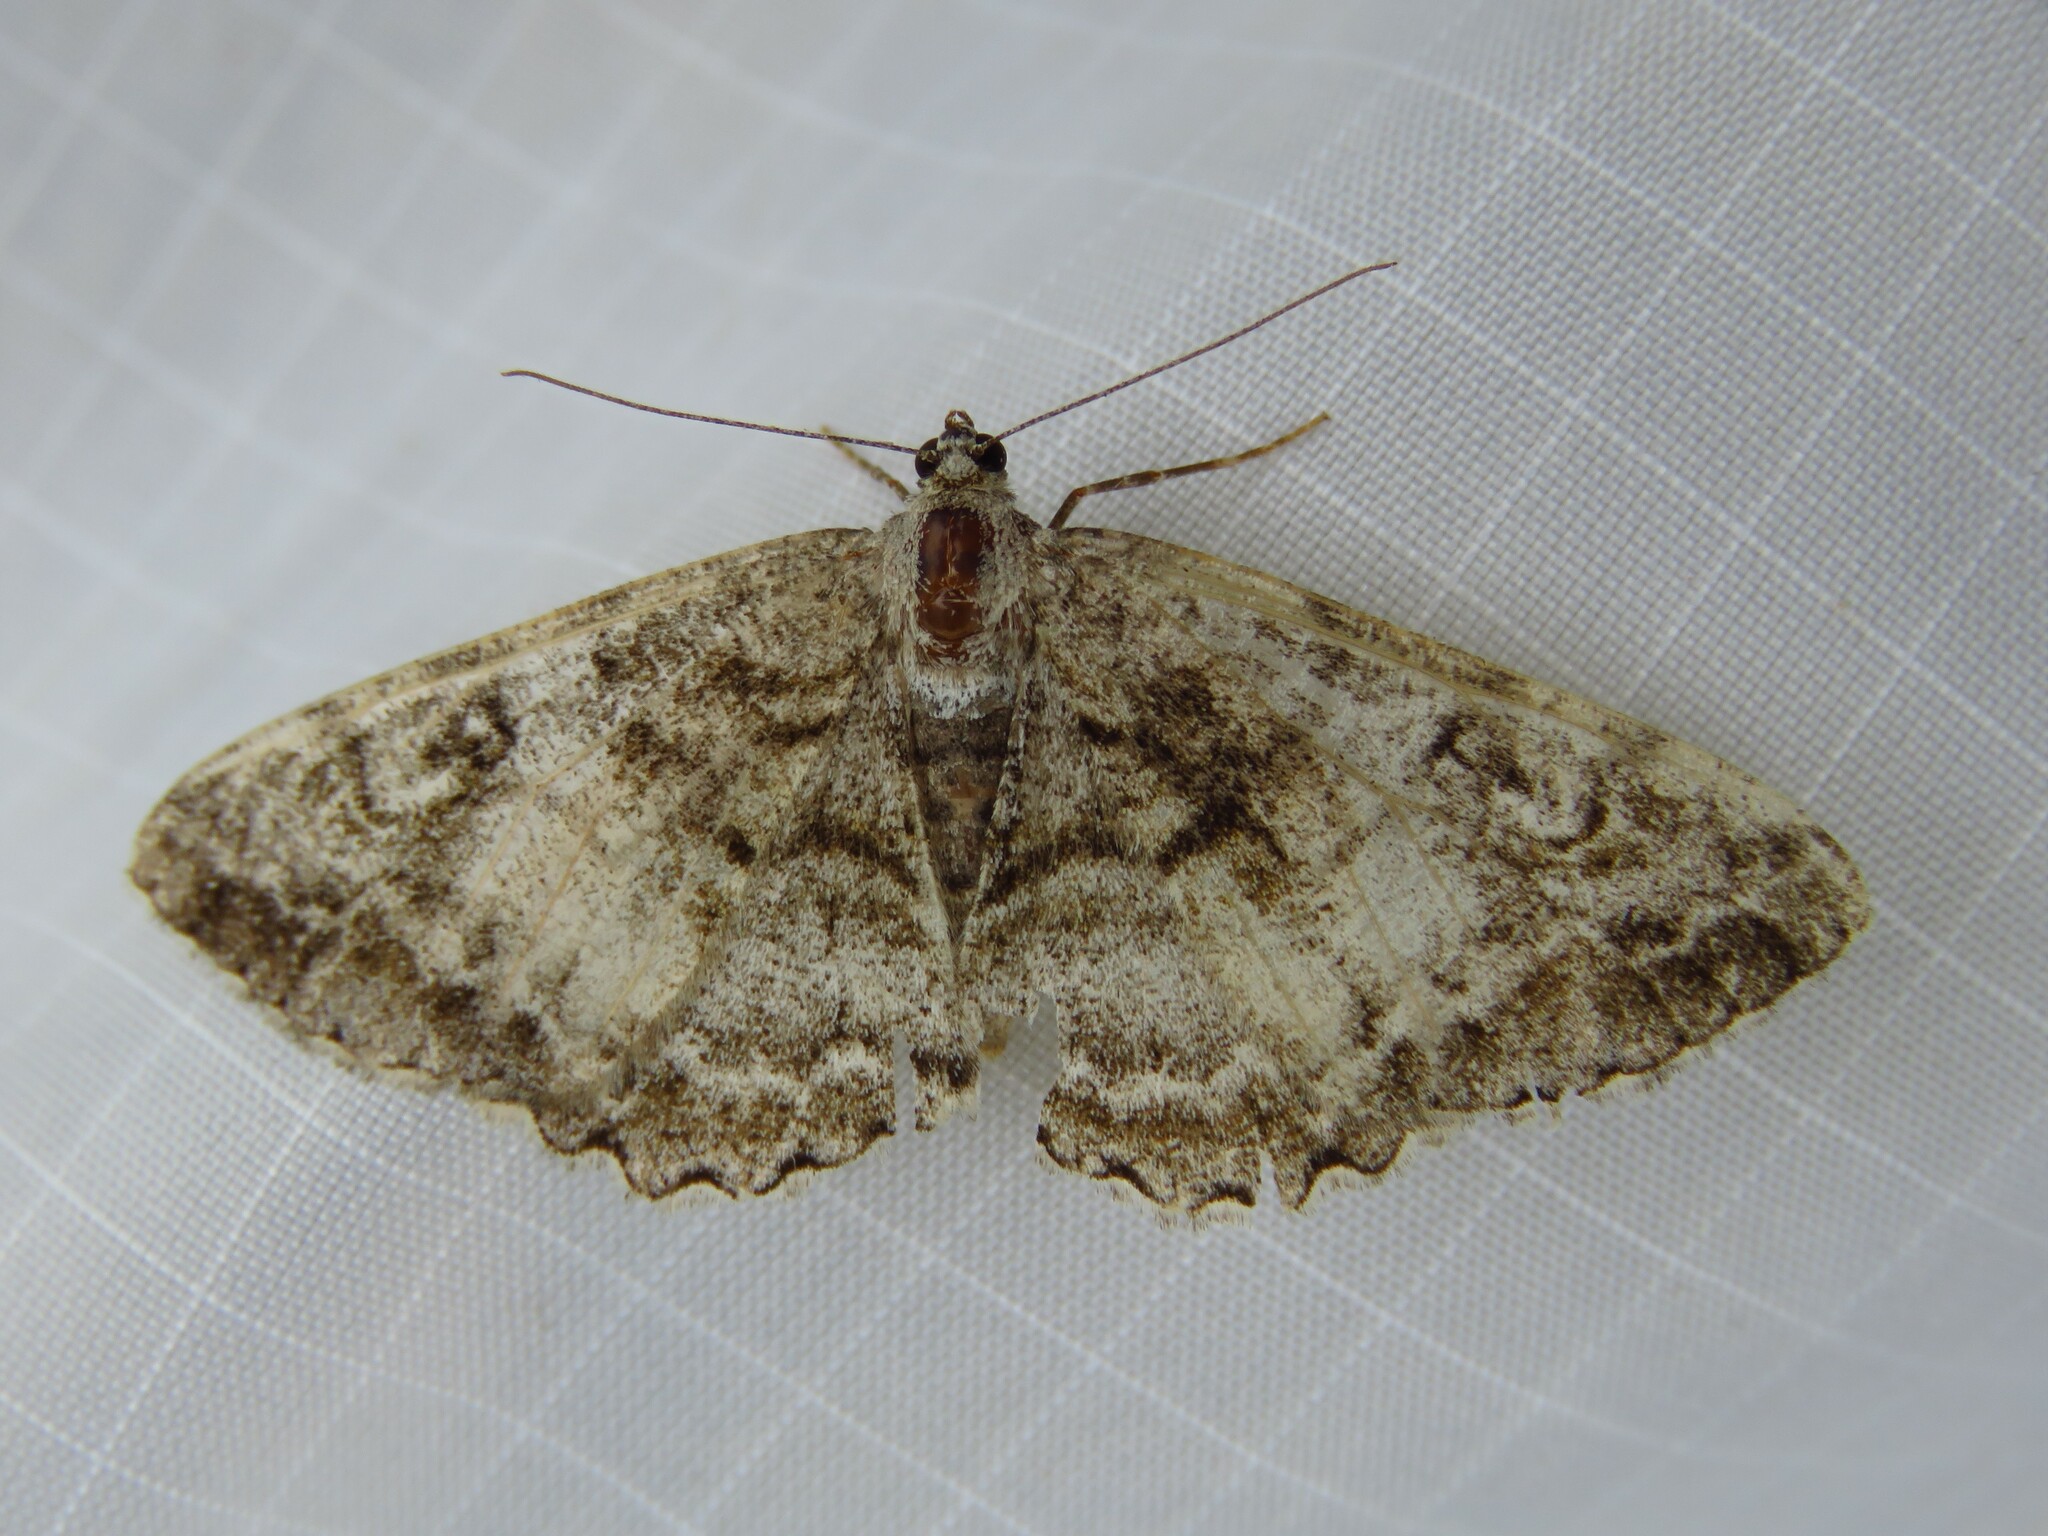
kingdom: Animalia
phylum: Arthropoda
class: Insecta
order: Lepidoptera
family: Geometridae
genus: Alcis
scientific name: Alcis repandata
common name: Mottled beauty
